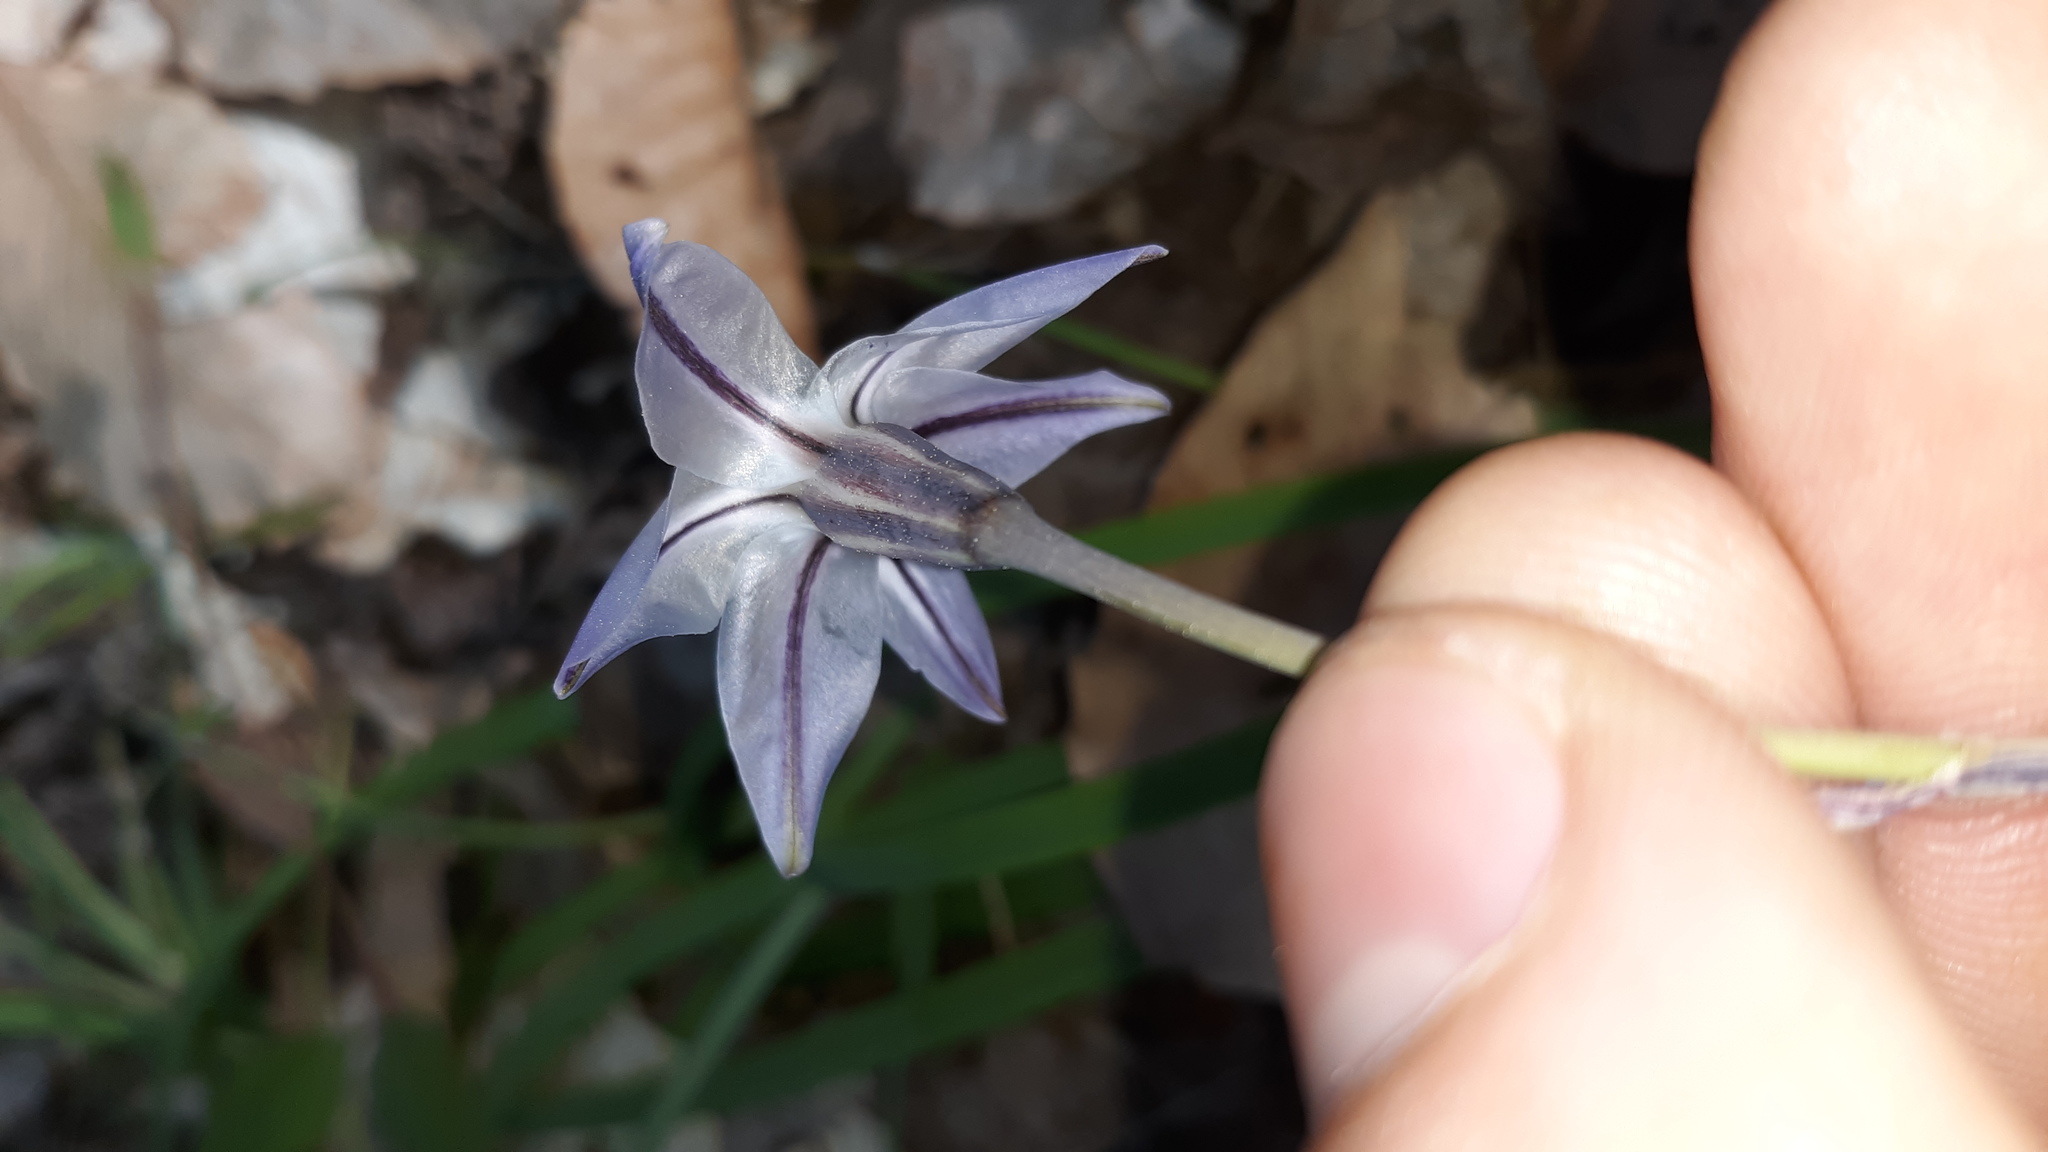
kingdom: Plantae
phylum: Tracheophyta
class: Liliopsida
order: Asparagales
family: Amaryllidaceae
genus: Ipheion
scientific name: Ipheion uniflorum
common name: Spring starflower
